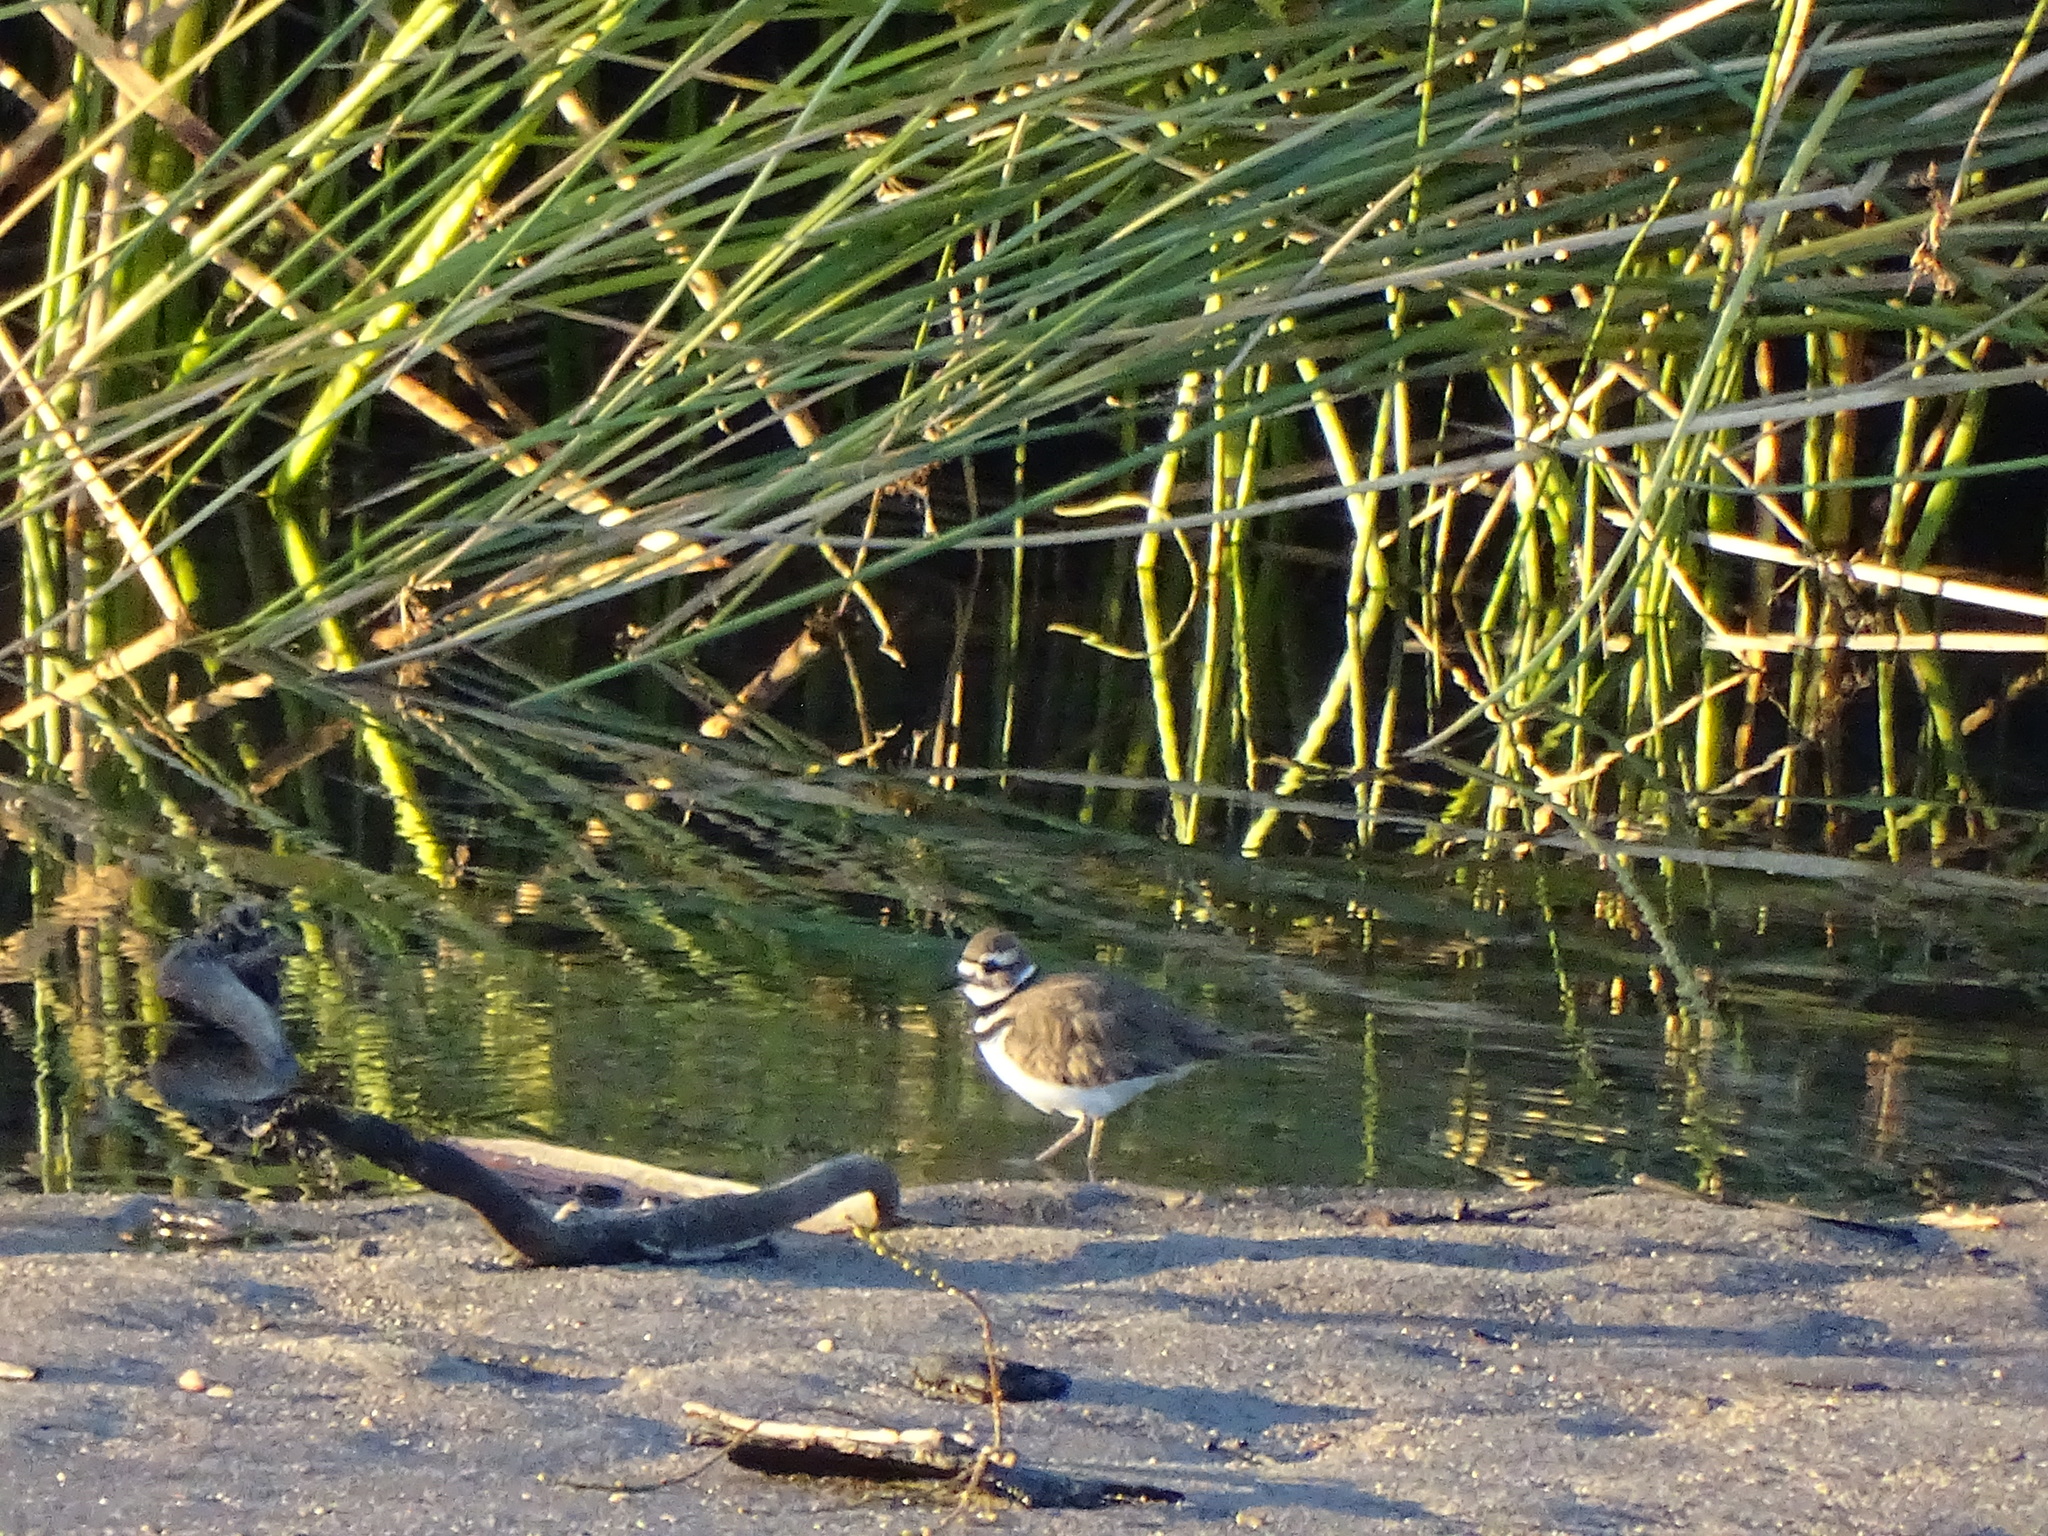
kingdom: Animalia
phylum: Chordata
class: Aves
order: Charadriiformes
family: Charadriidae
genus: Charadrius
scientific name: Charadrius vociferus
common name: Killdeer
